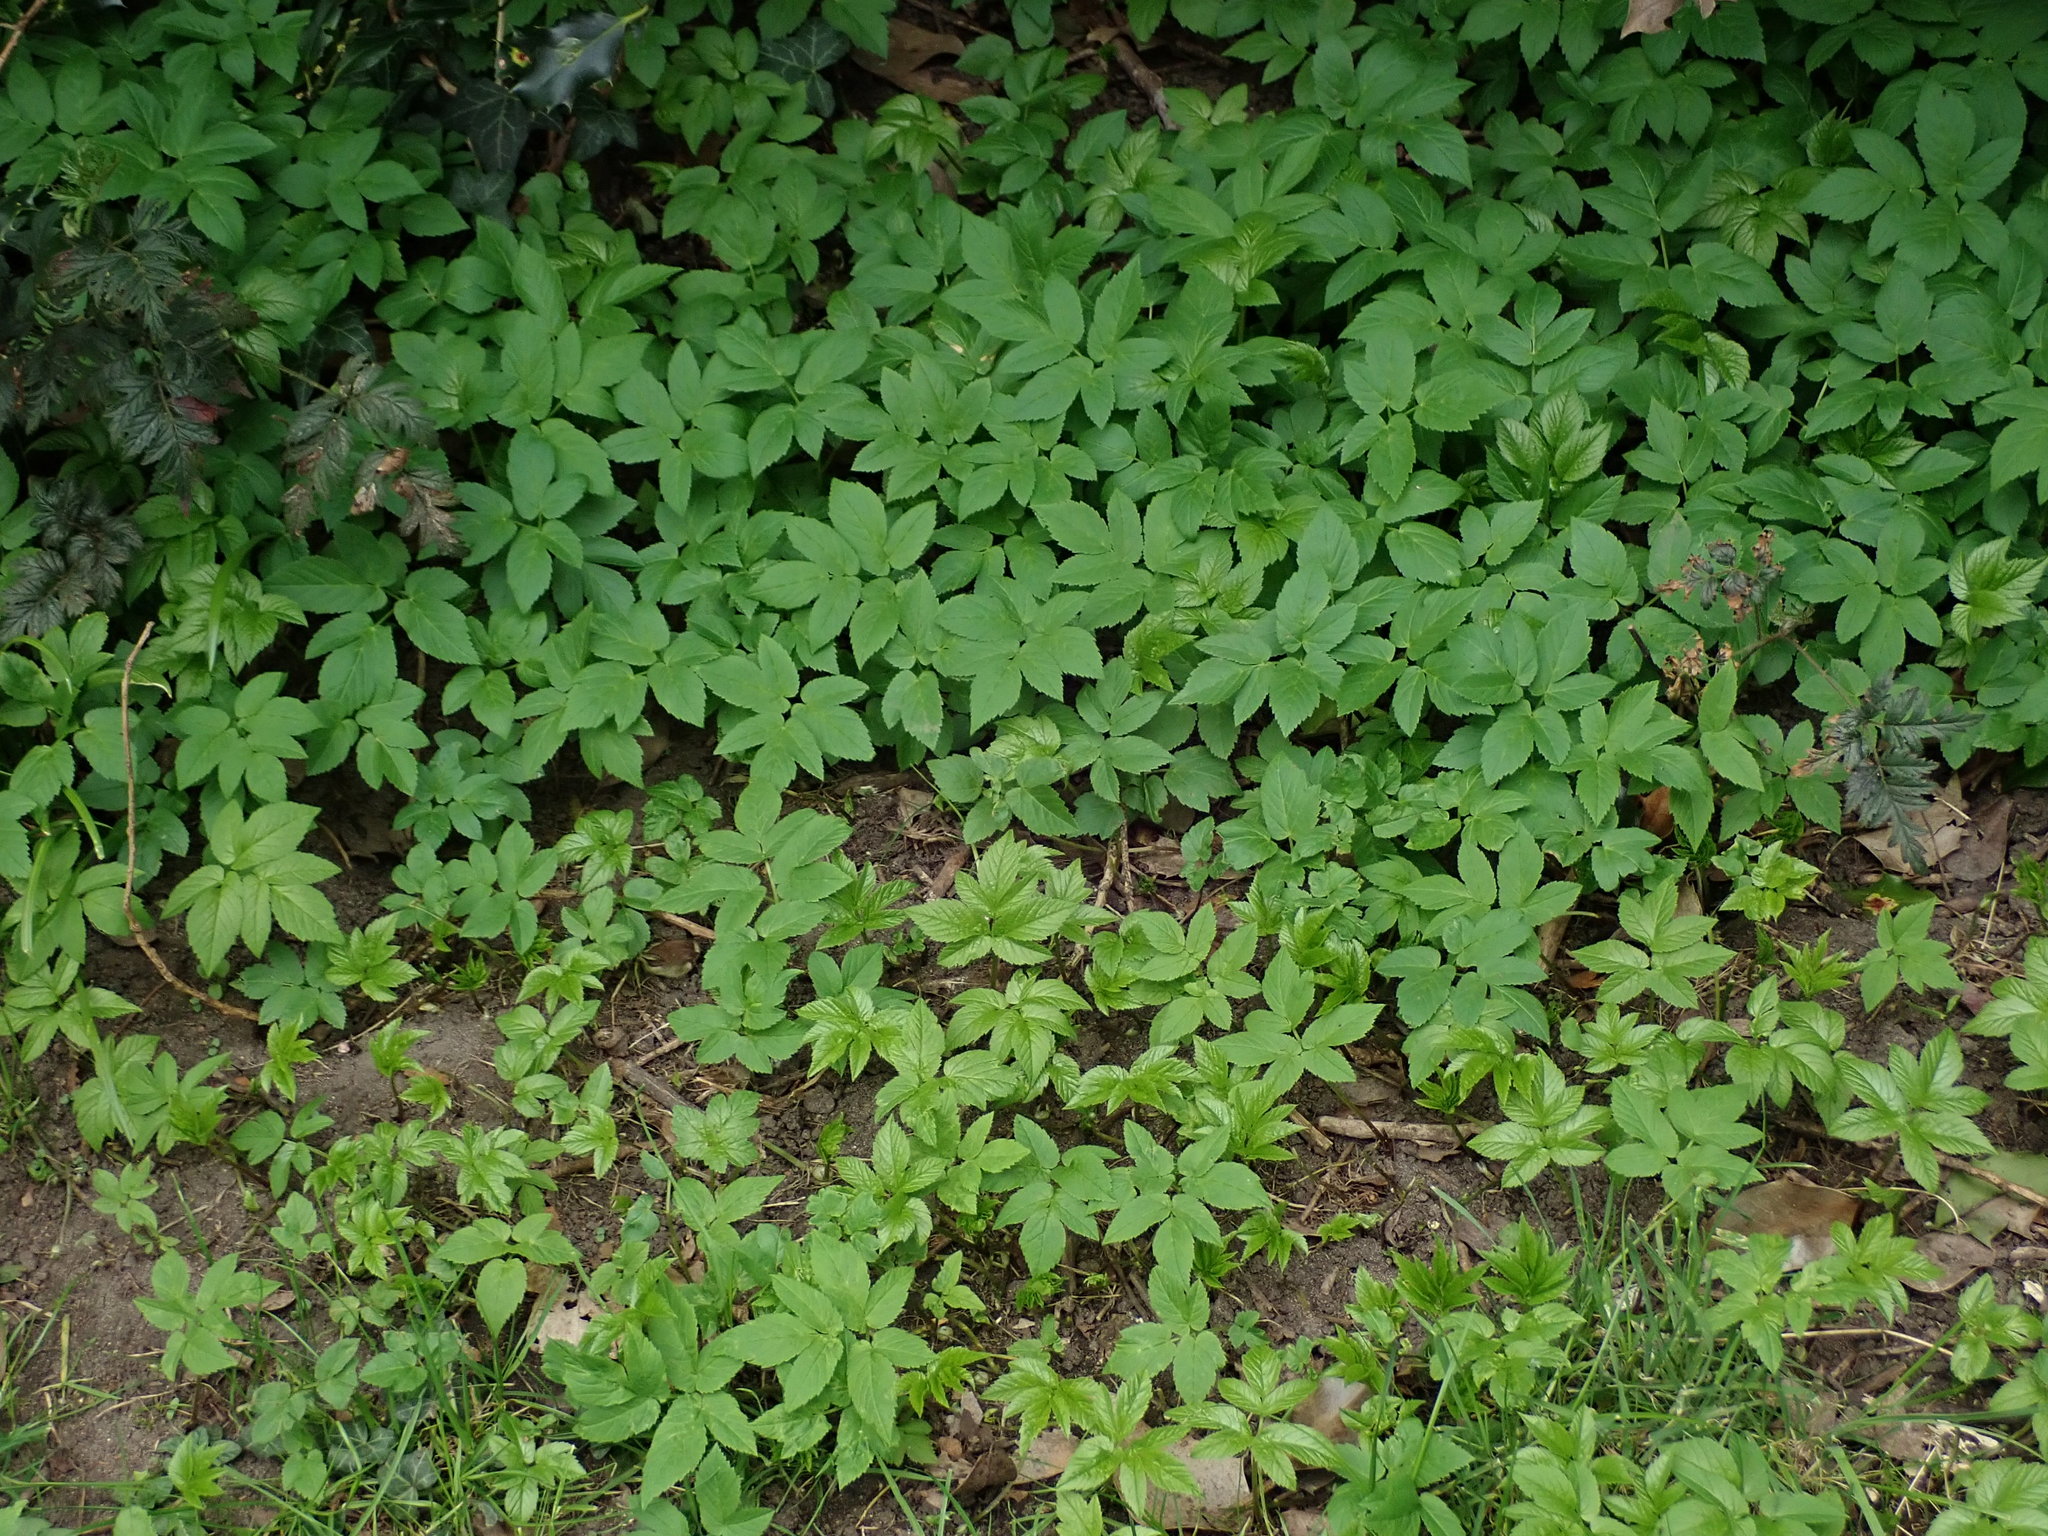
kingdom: Plantae
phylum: Tracheophyta
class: Magnoliopsida
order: Apiales
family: Apiaceae
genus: Aegopodium
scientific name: Aegopodium podagraria
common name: Ground-elder
